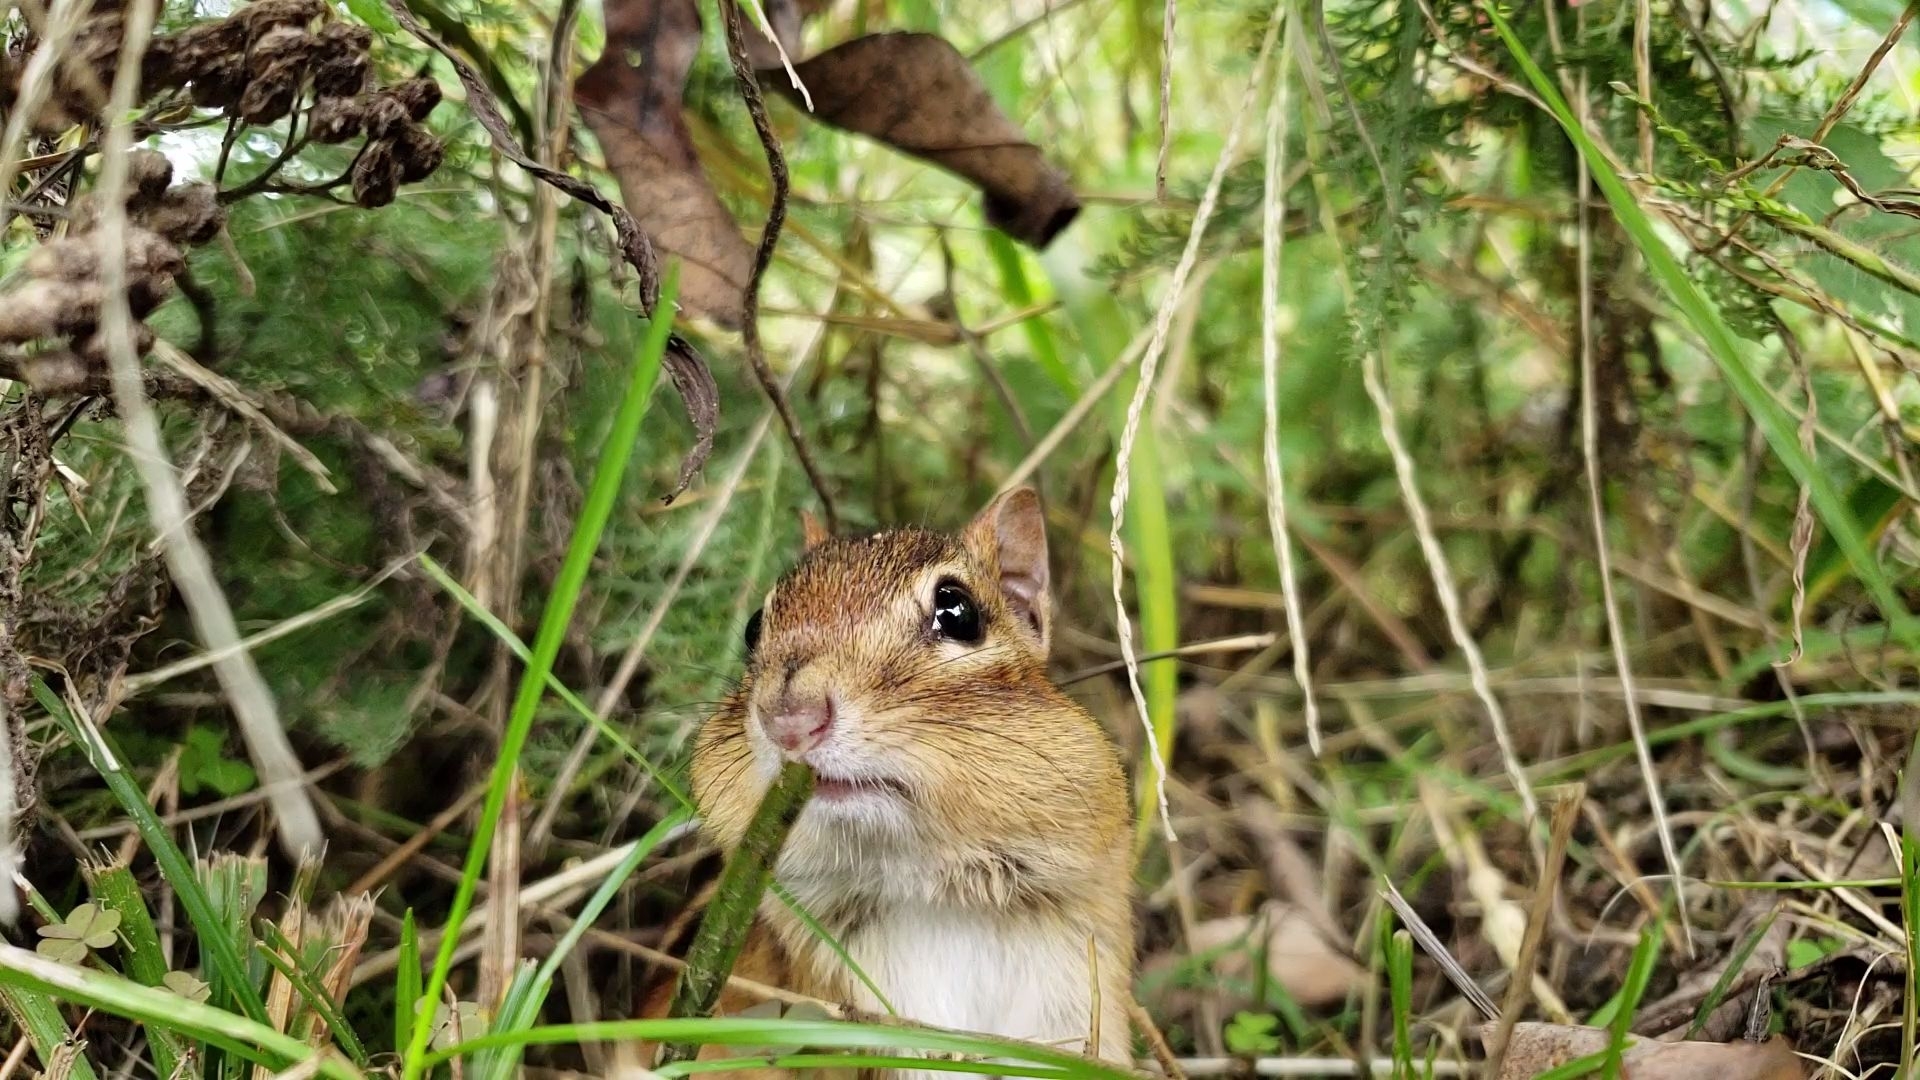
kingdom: Animalia
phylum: Chordata
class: Mammalia
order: Rodentia
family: Sciuridae
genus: Tamias
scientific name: Tamias striatus
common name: Eastern chipmunk
